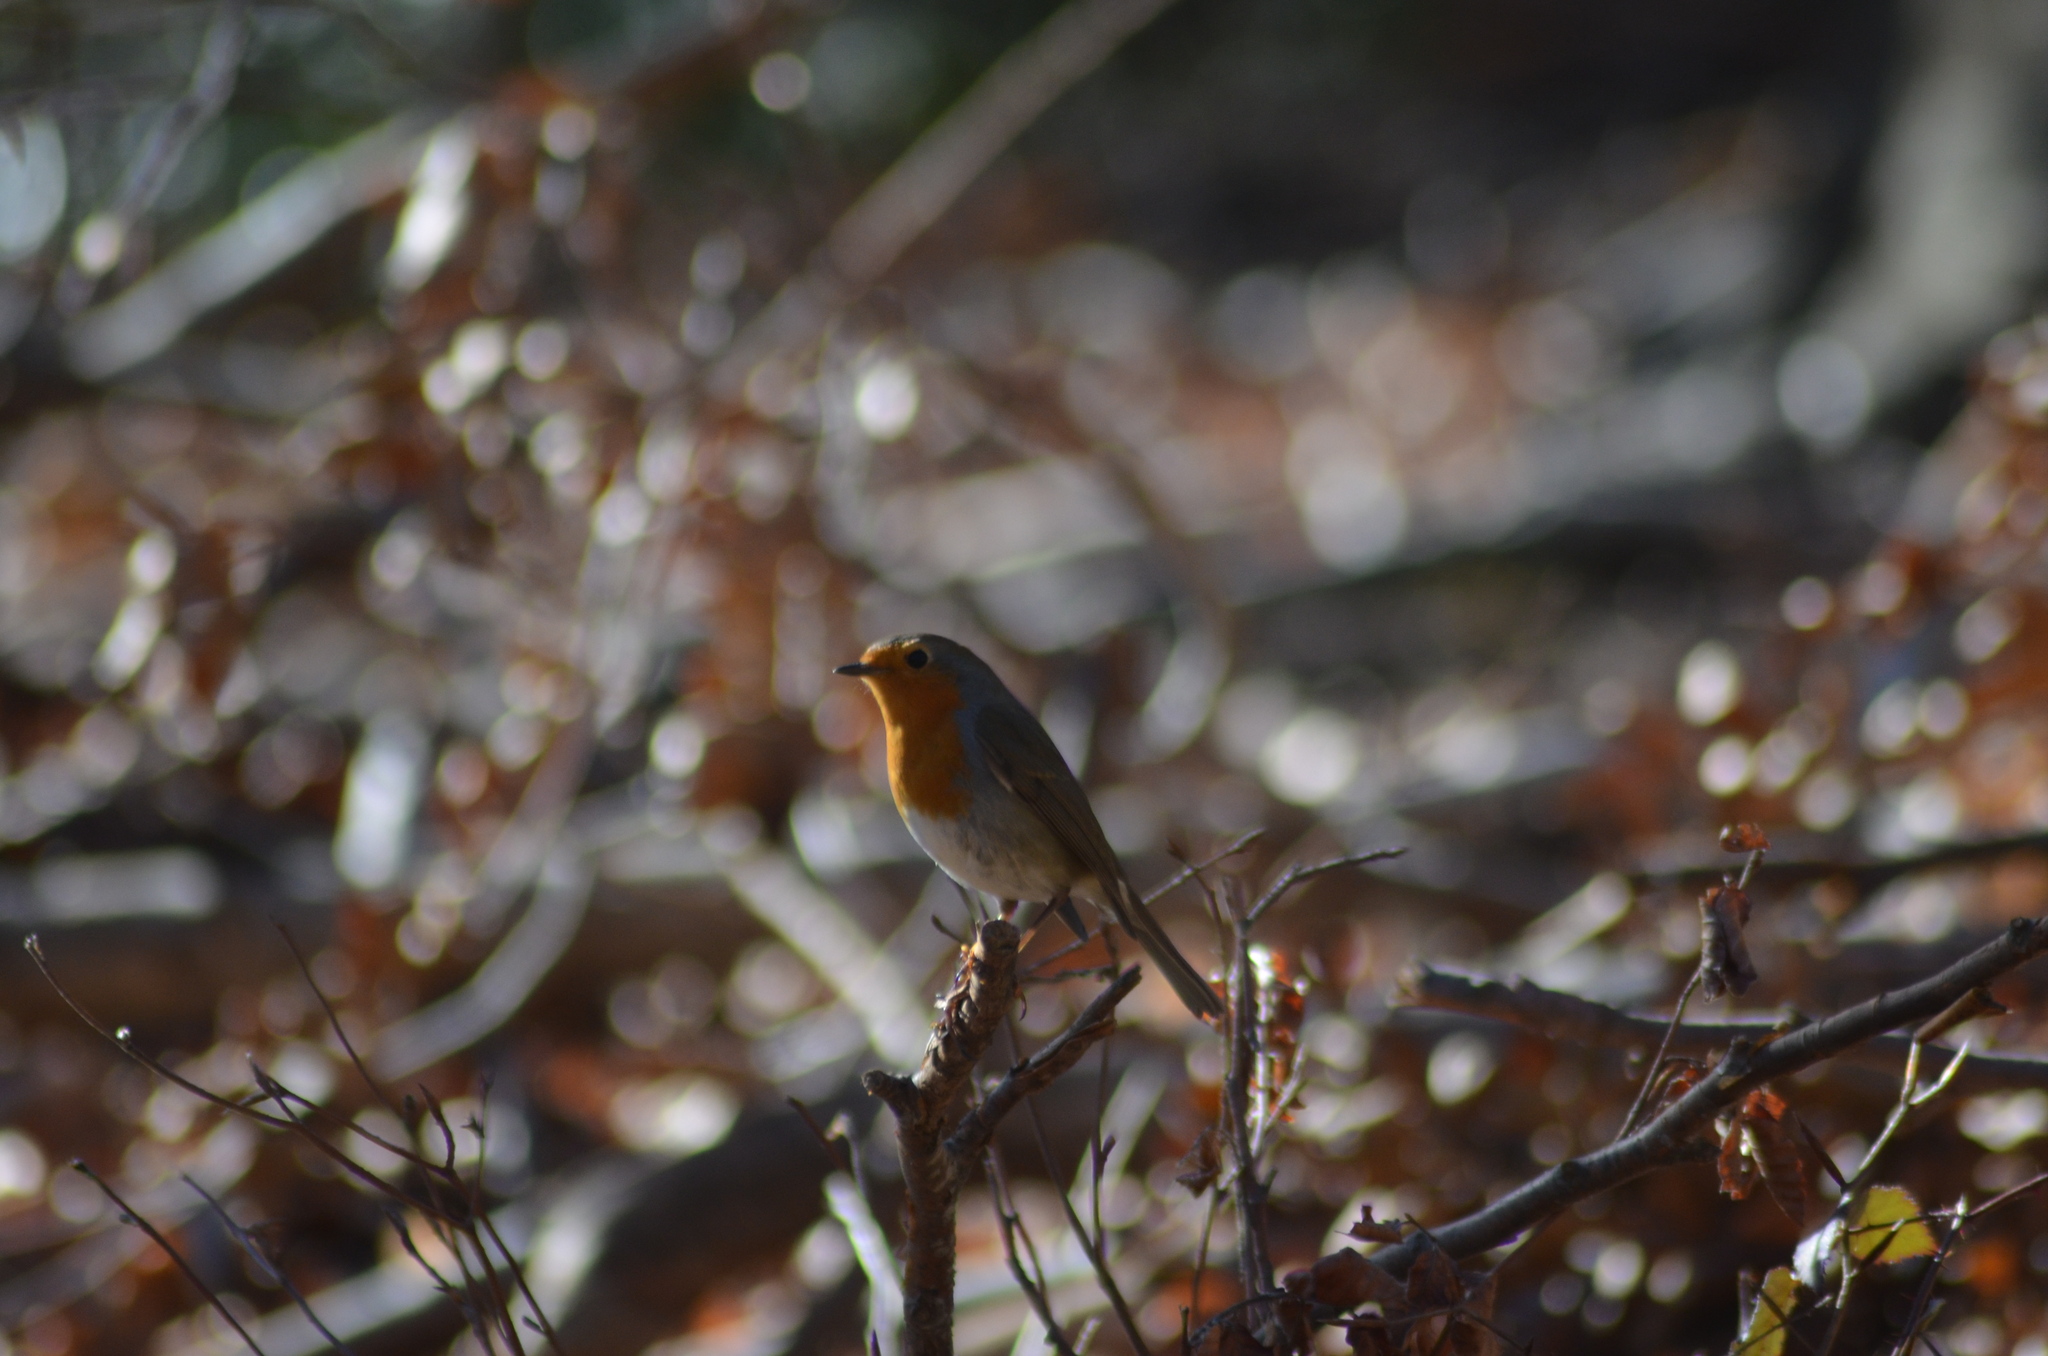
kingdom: Animalia
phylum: Chordata
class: Aves
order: Passeriformes
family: Muscicapidae
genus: Erithacus
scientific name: Erithacus rubecula
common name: European robin
